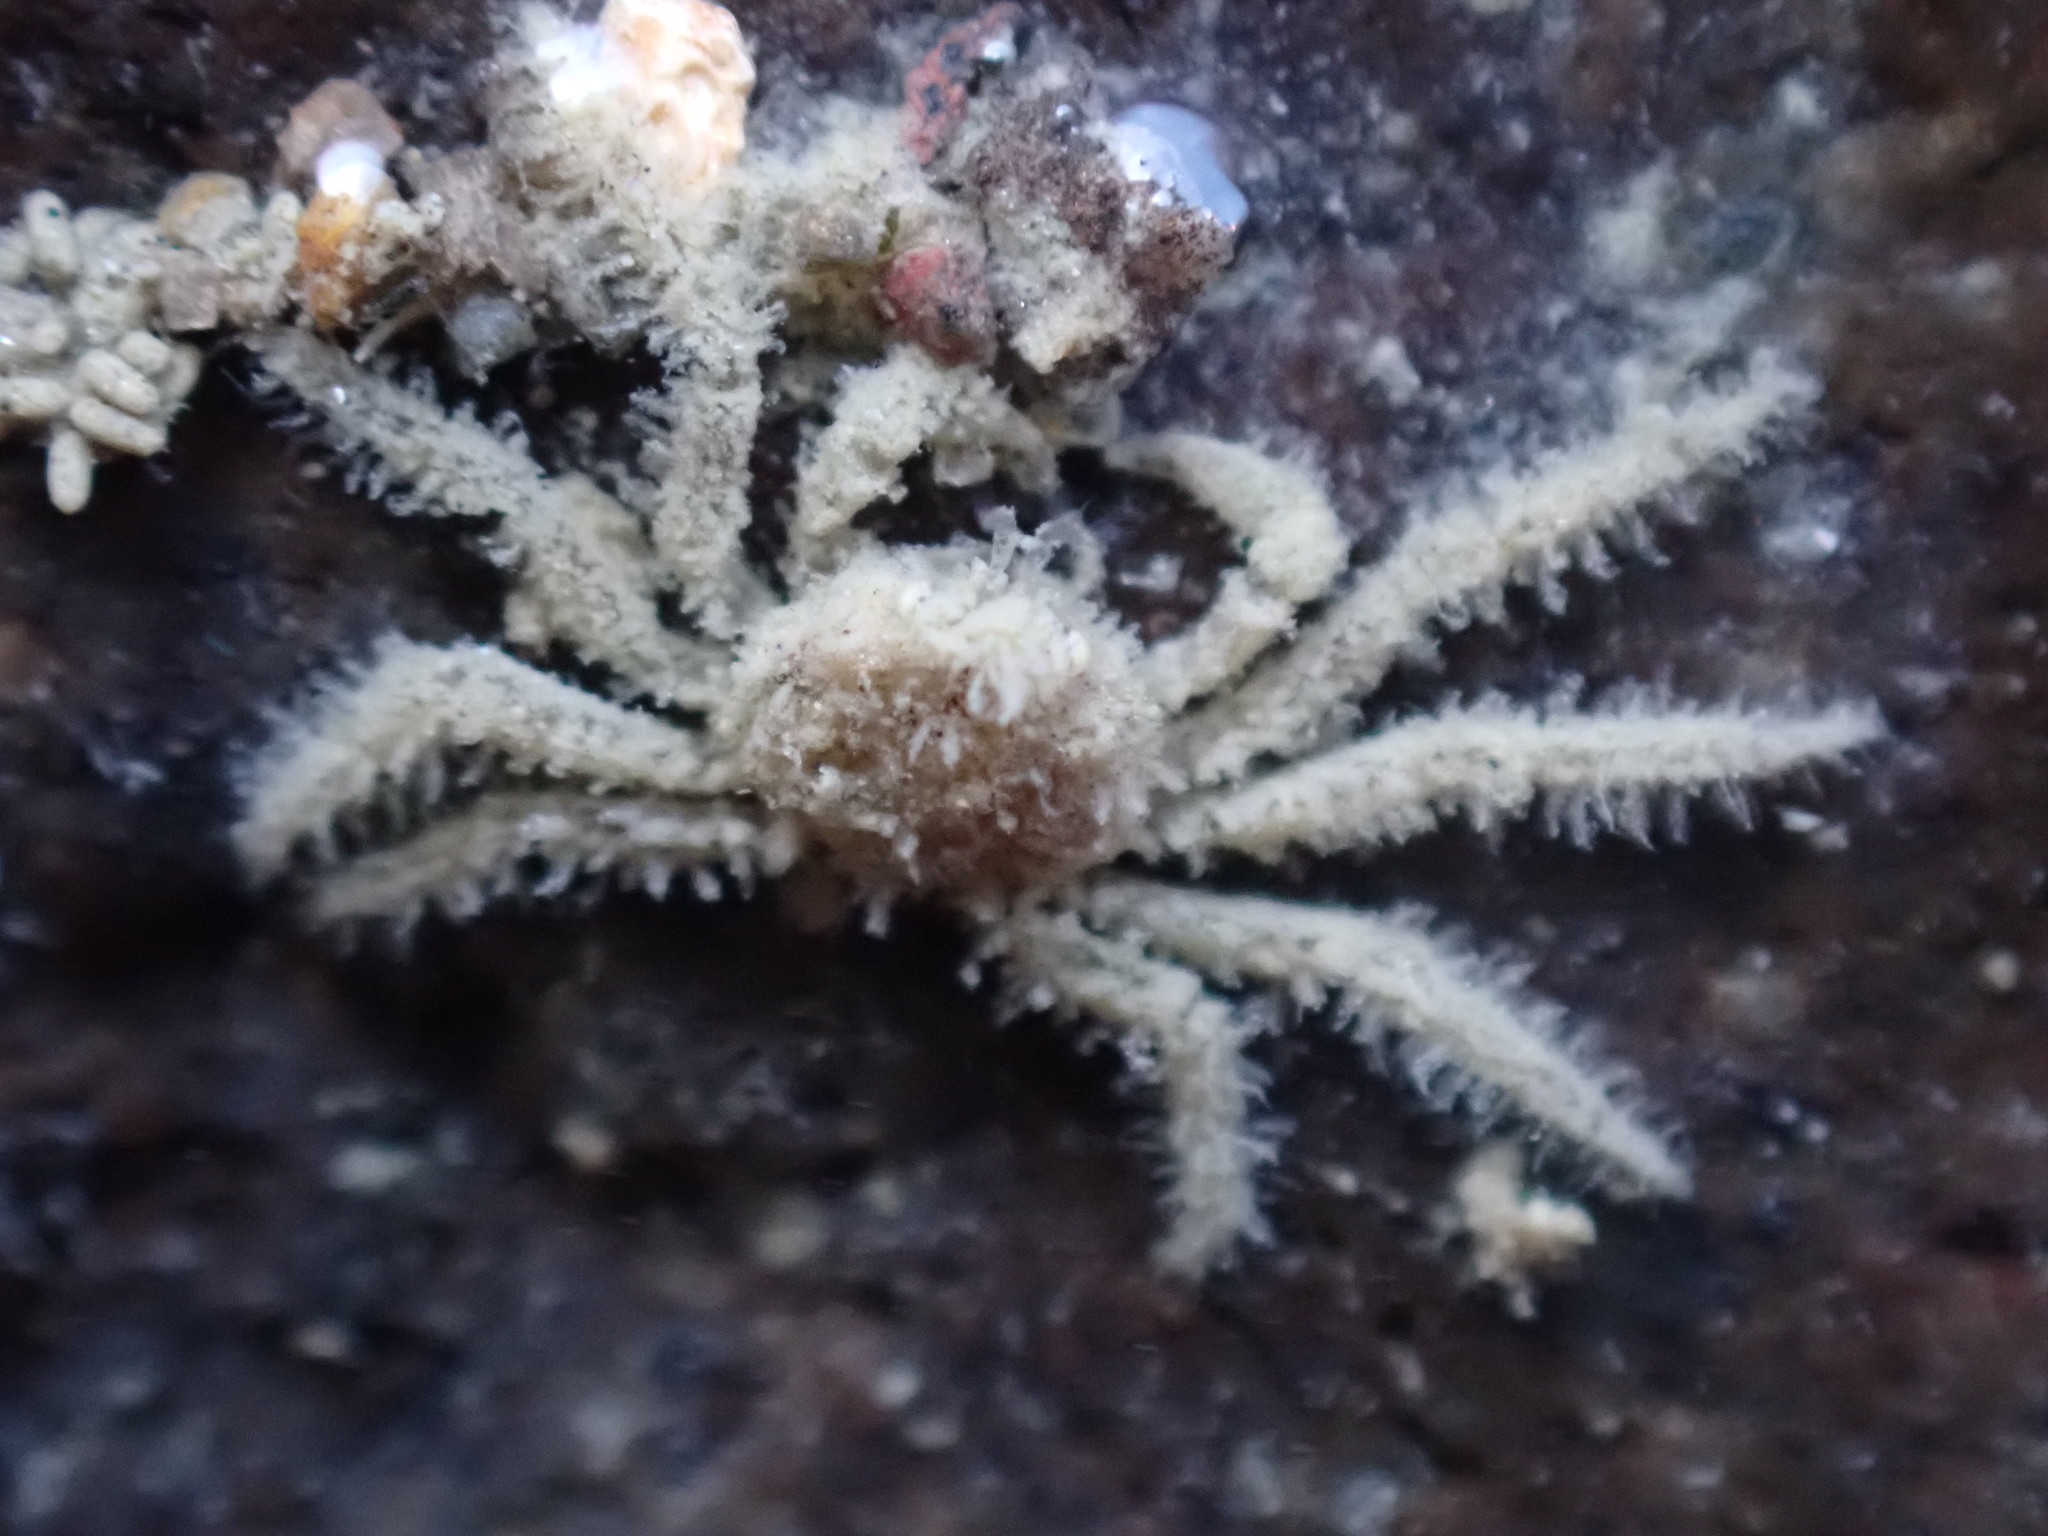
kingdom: Animalia
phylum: Arthropoda
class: Malacostraca
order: Decapoda
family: Hymenosomatidae
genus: Neohymenicus
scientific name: Neohymenicus pubescens
